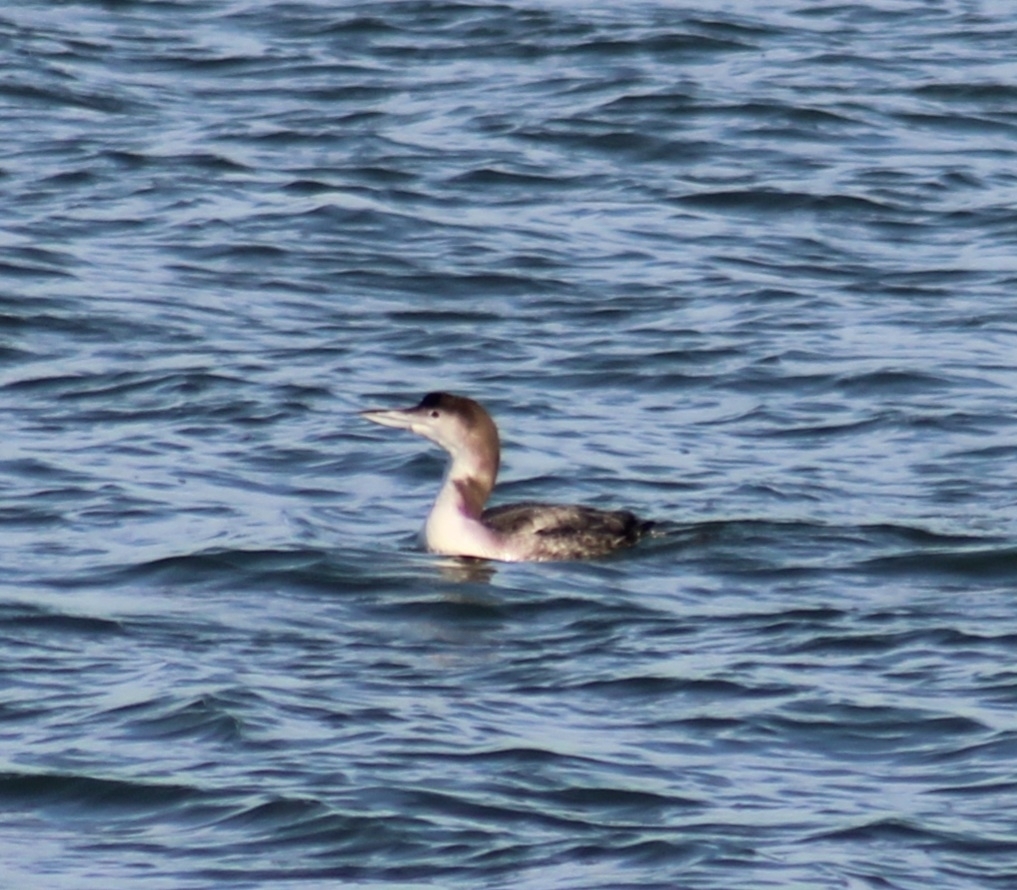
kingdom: Animalia
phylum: Chordata
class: Aves
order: Gaviiformes
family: Gaviidae
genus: Gavia
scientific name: Gavia immer
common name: Common loon
